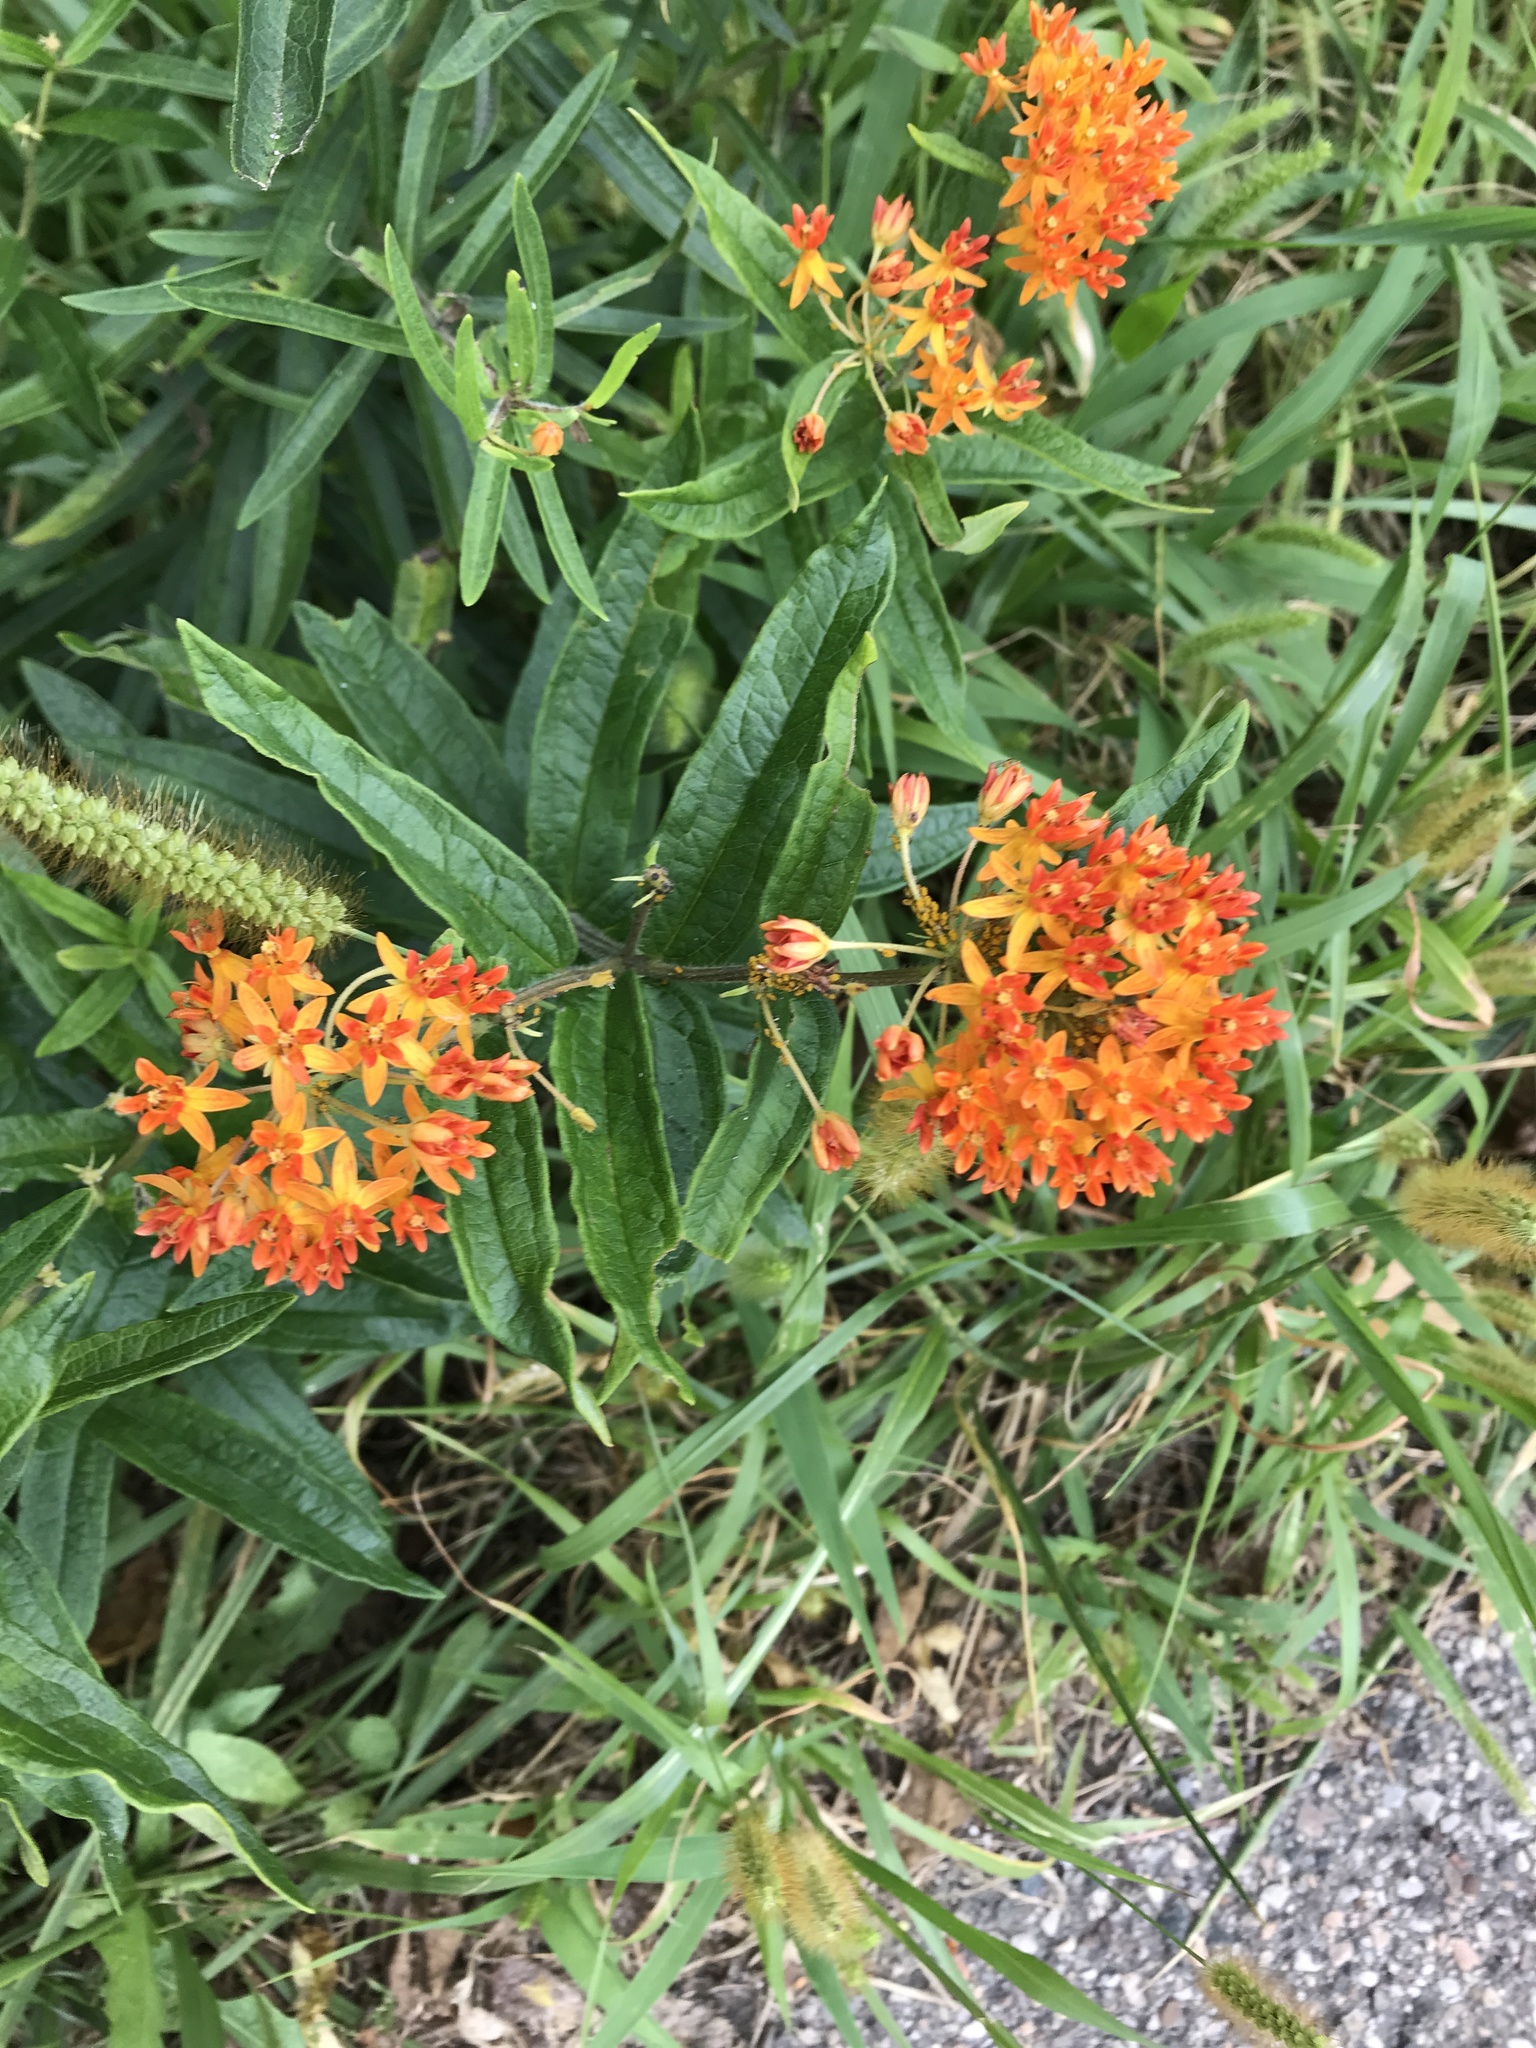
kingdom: Plantae
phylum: Tracheophyta
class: Magnoliopsida
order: Gentianales
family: Apocynaceae
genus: Asclepias
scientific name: Asclepias tuberosa
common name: Butterfly milkweed
